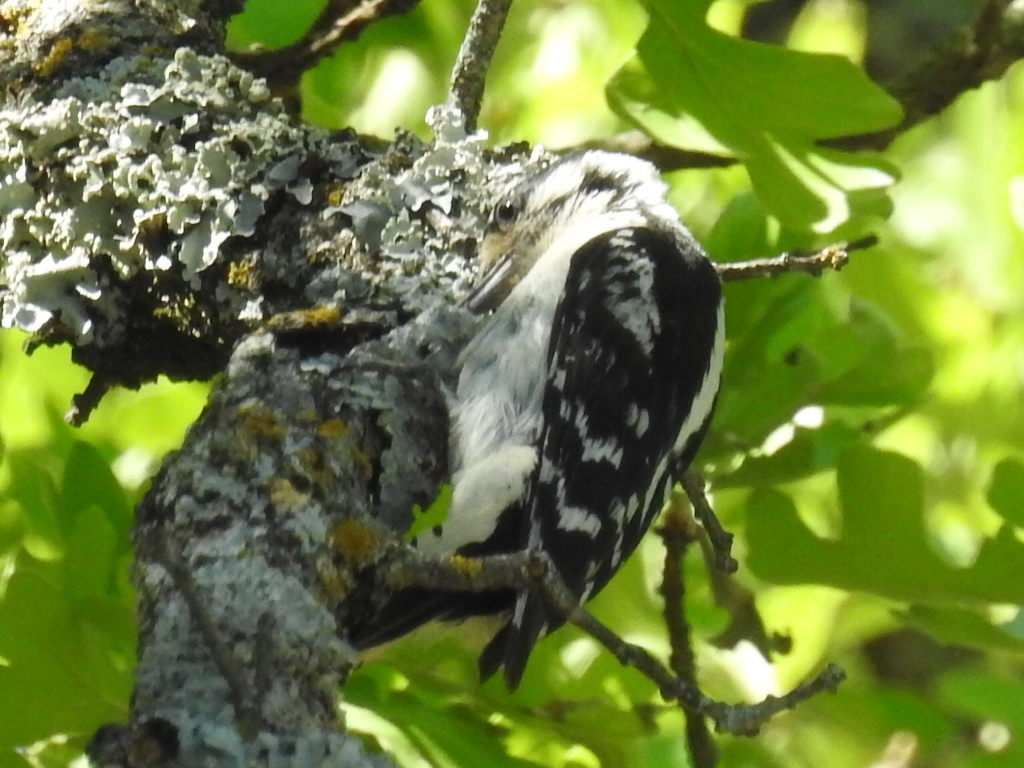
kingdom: Animalia
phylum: Chordata
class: Aves
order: Piciformes
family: Picidae
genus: Dryobates
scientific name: Dryobates pubescens
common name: Downy woodpecker
